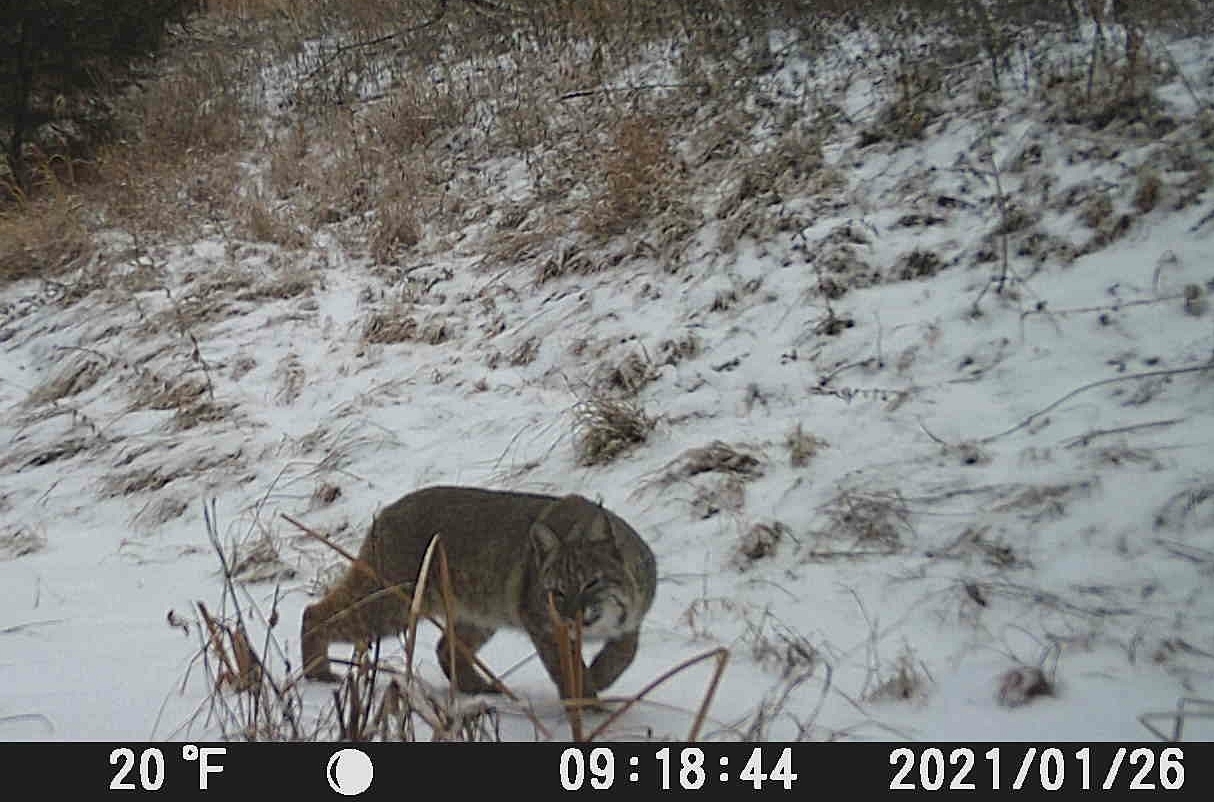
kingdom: Animalia
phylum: Chordata
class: Mammalia
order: Carnivora
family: Felidae
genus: Lynx
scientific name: Lynx rufus
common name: Bobcat
